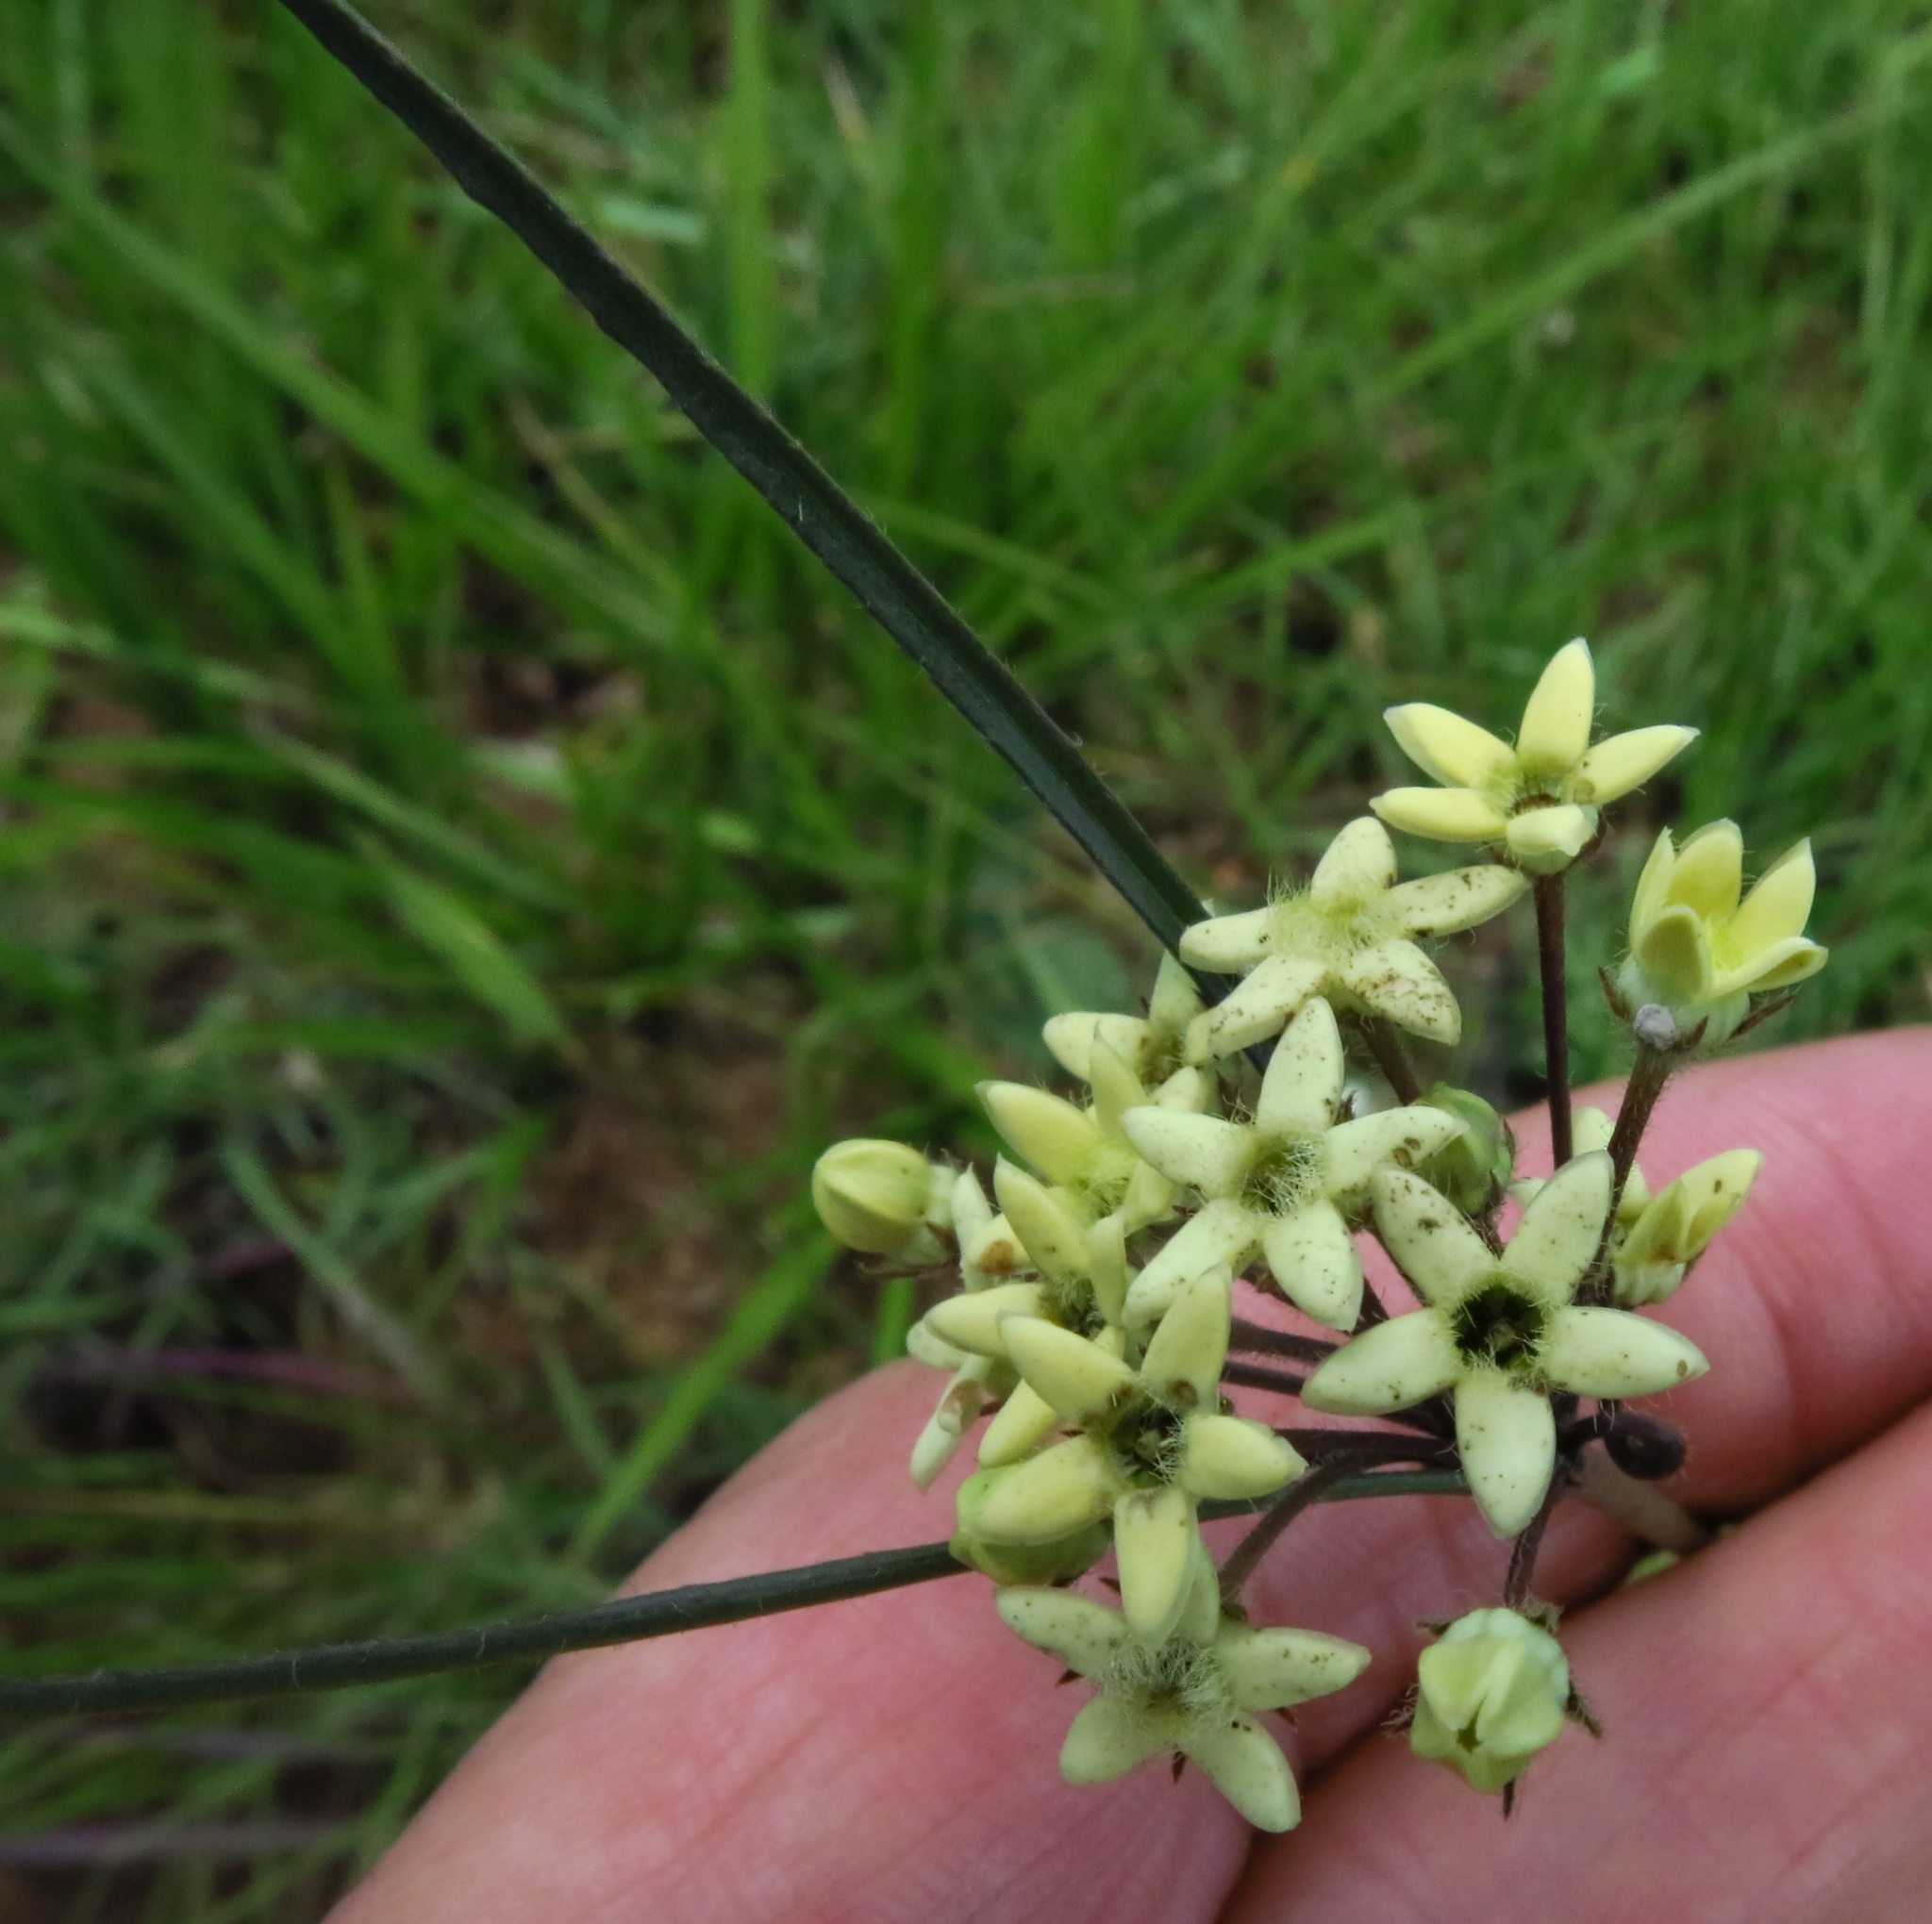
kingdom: Plantae
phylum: Tracheophyta
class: Magnoliopsida
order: Gentianales
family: Apocynaceae
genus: Sisyranthus
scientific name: Sisyranthus trichostomus
